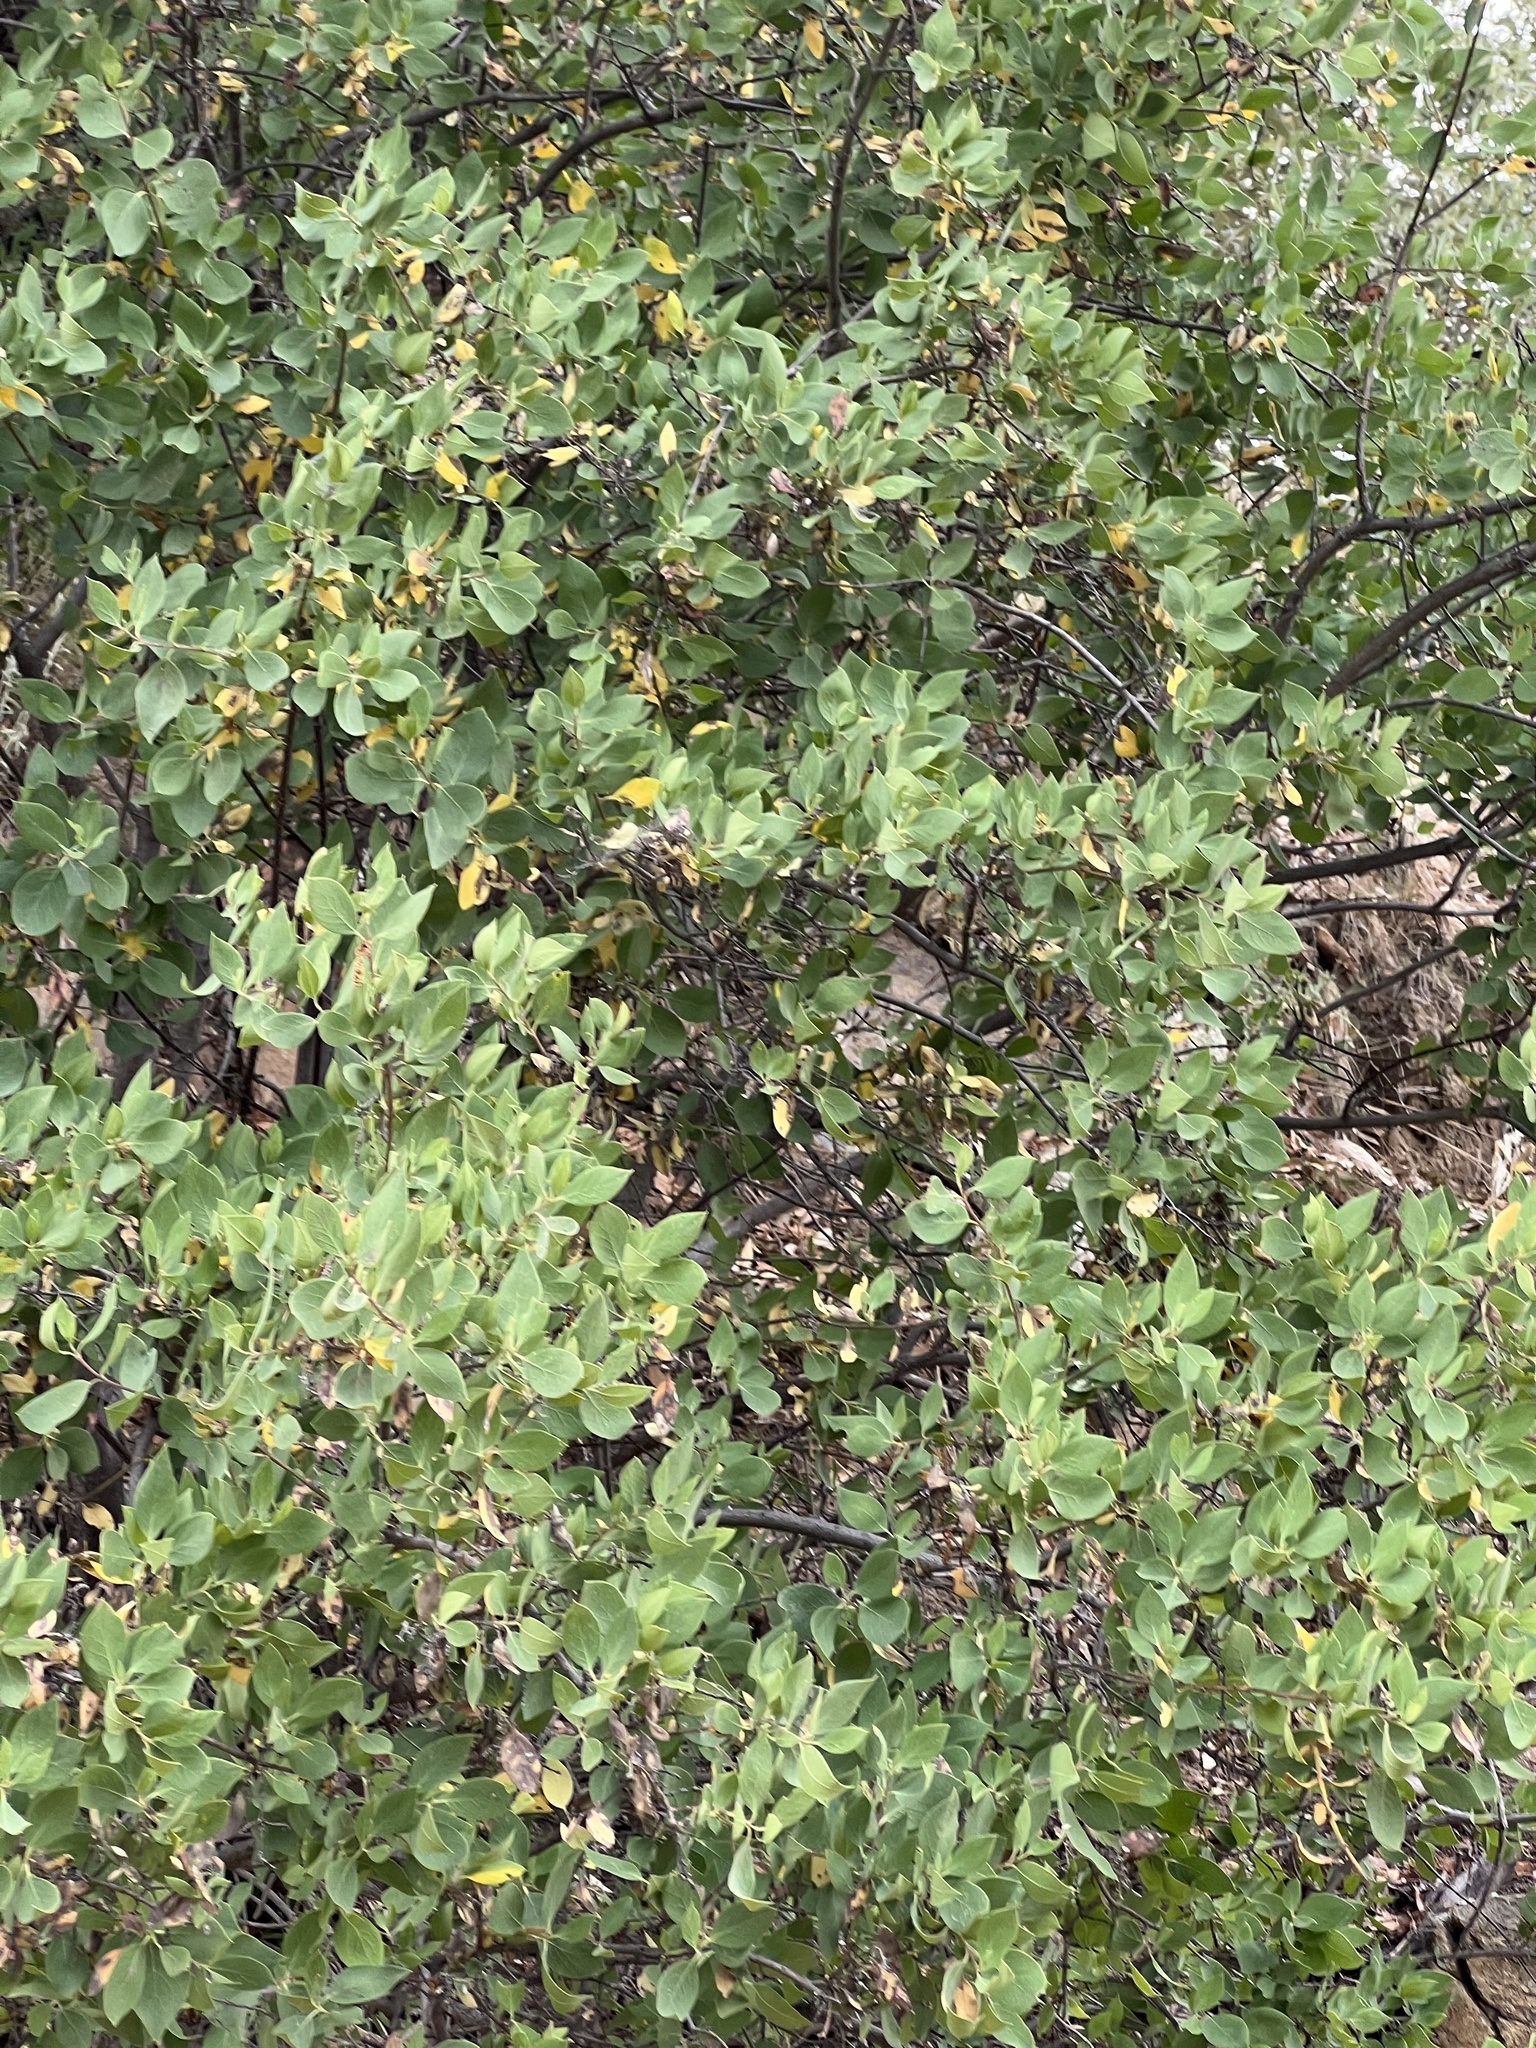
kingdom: Plantae
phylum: Tracheophyta
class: Magnoliopsida
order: Garryales
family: Garryaceae
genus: Garrya
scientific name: Garrya wrightii
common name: Wright's silktassel
